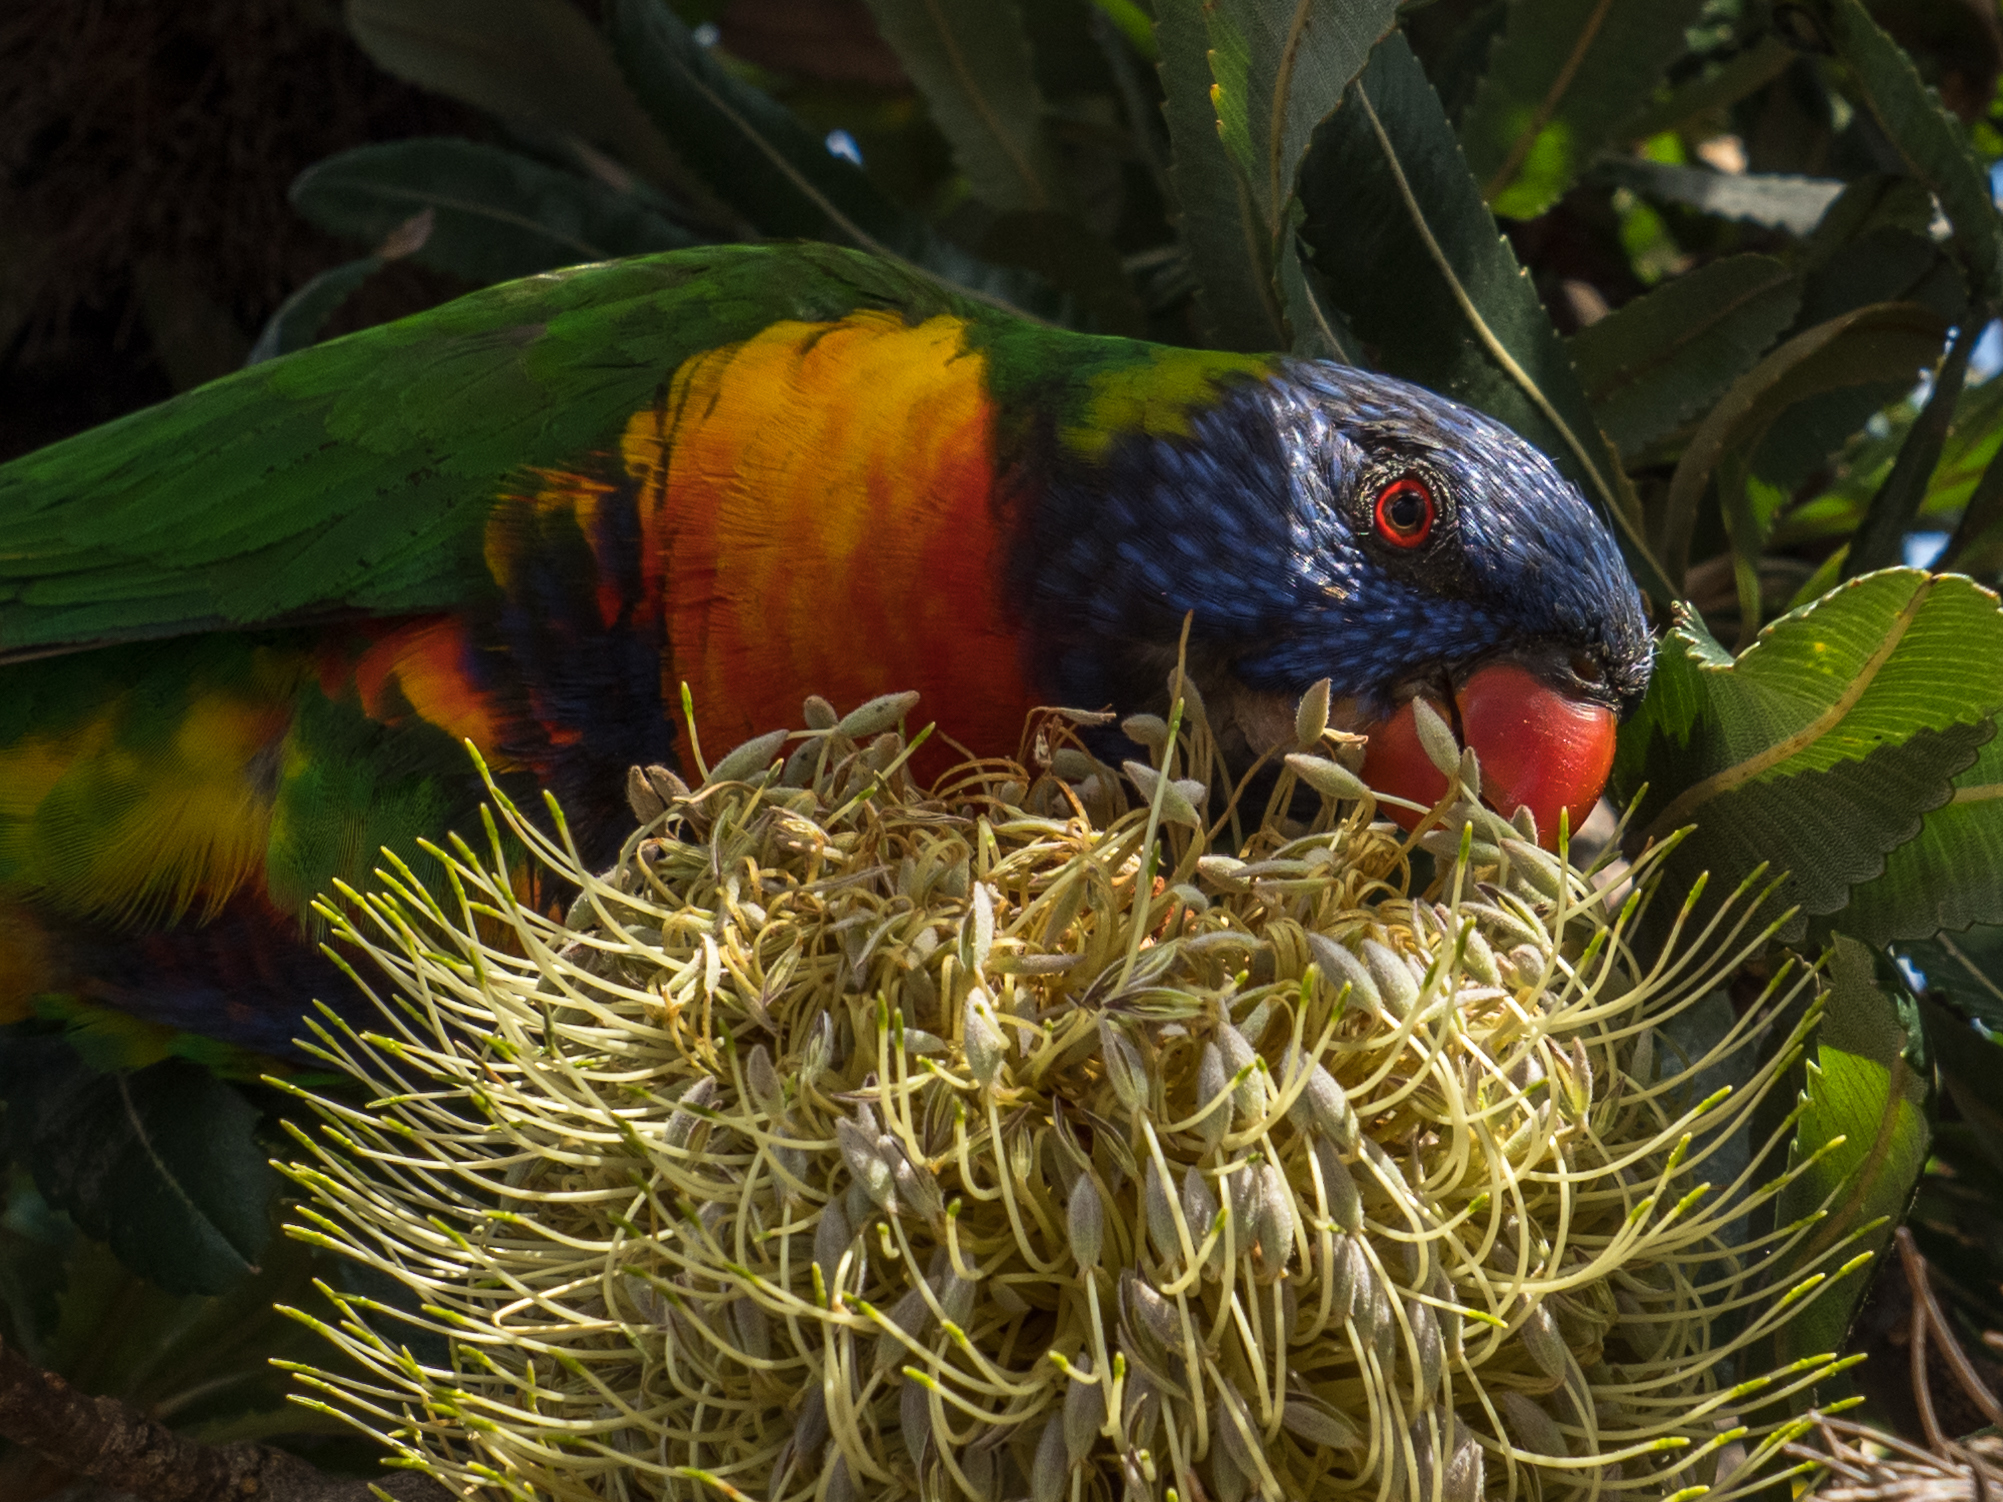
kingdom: Animalia
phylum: Chordata
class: Aves
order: Psittaciformes
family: Psittacidae
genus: Trichoglossus
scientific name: Trichoglossus haematodus
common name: Coconut lorikeet
